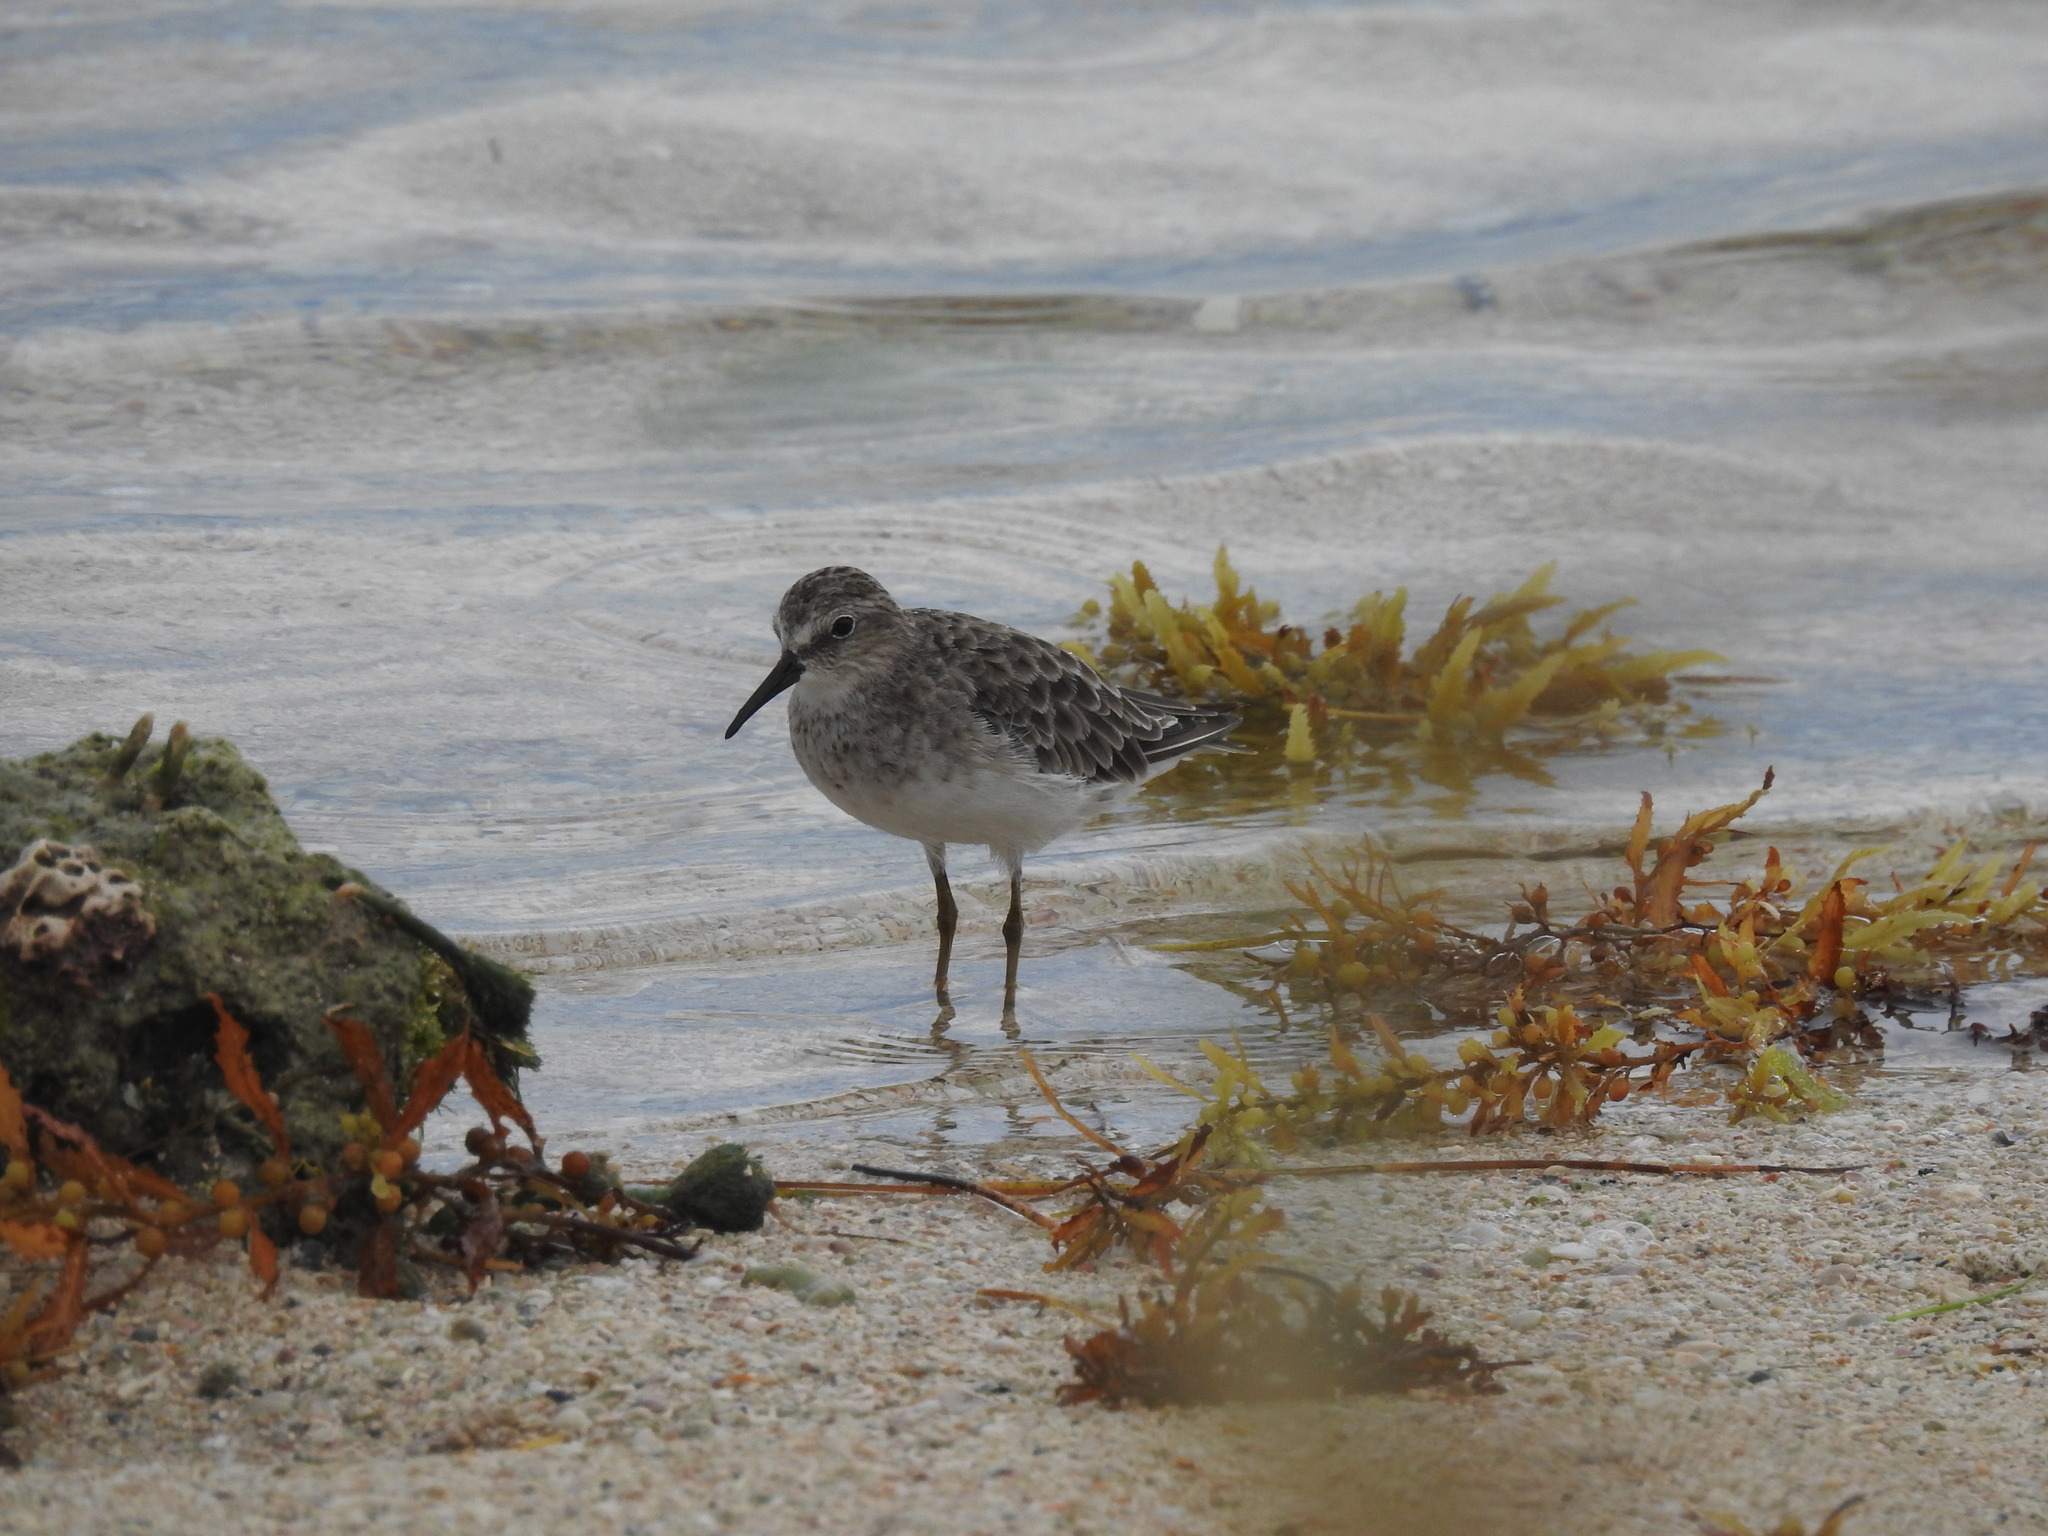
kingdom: Animalia
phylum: Chordata
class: Aves
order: Charadriiformes
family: Scolopacidae
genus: Calidris
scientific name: Calidris minutilla
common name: Least sandpiper
